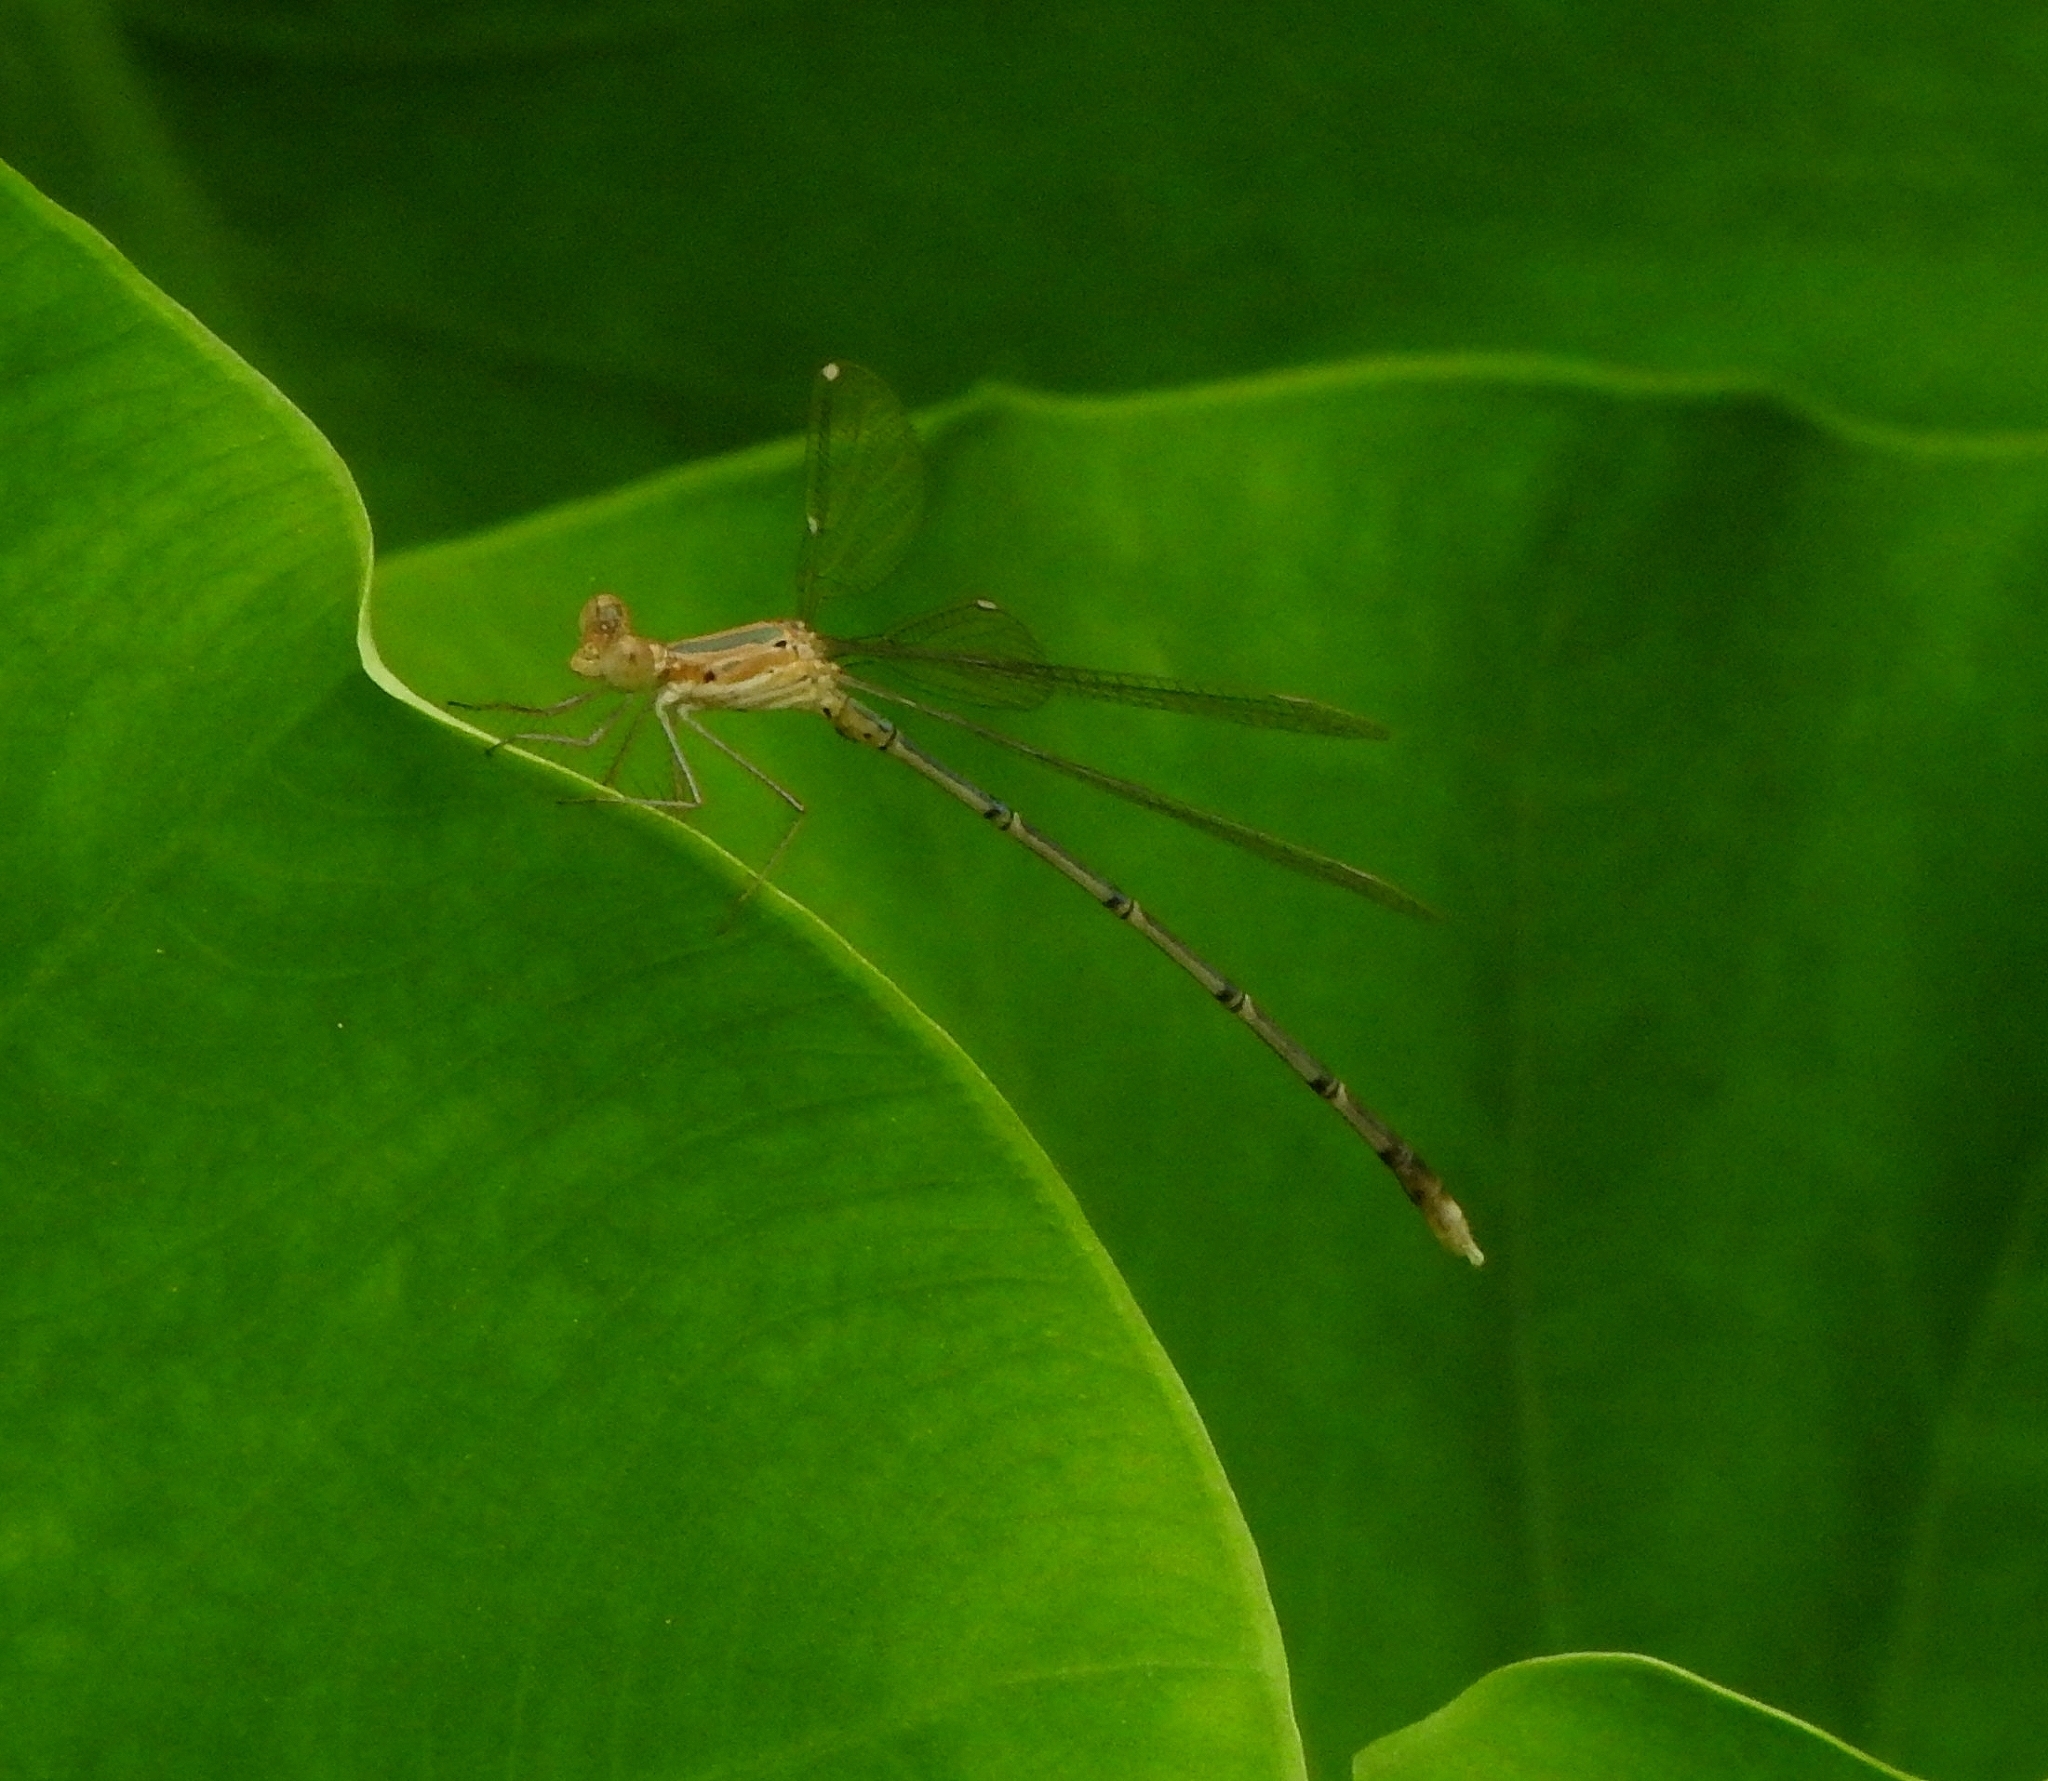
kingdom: Animalia
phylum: Arthropoda
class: Insecta
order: Odonata
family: Lestidae
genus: Lestes
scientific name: Lestes elatus
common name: Emerald spreadwing
